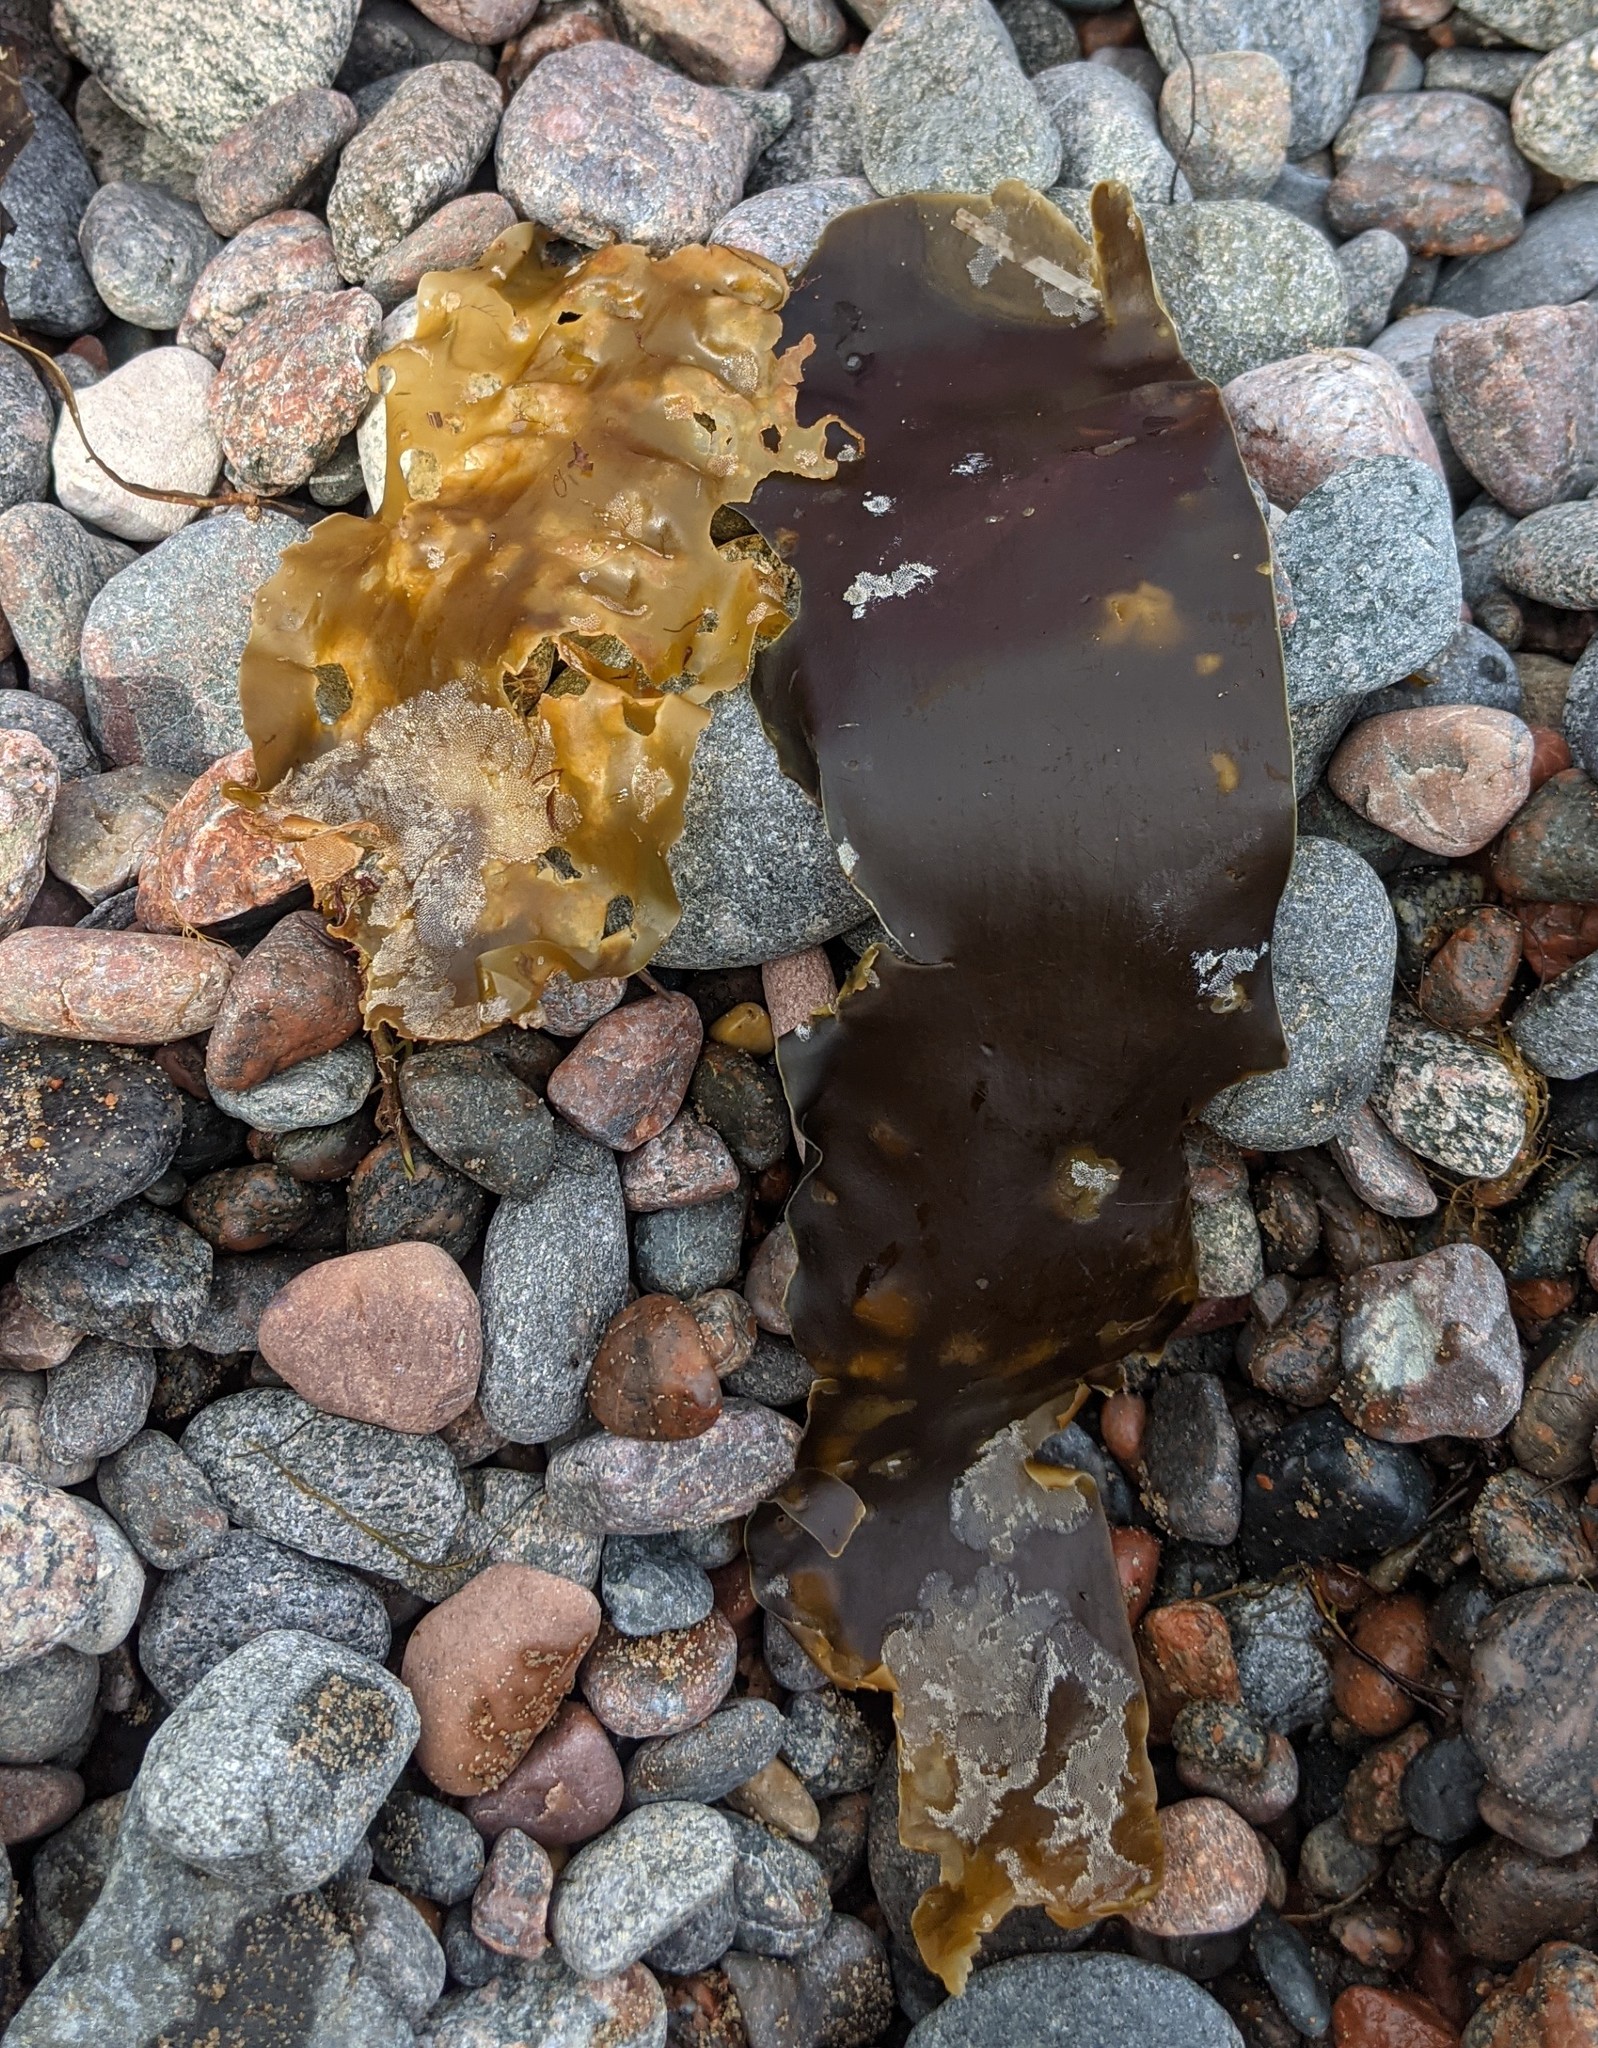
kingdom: Chromista
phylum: Ochrophyta
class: Phaeophyceae
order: Laminariales
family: Laminariaceae
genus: Saccharina
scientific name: Saccharina latissima
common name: Poor man's weather glass
